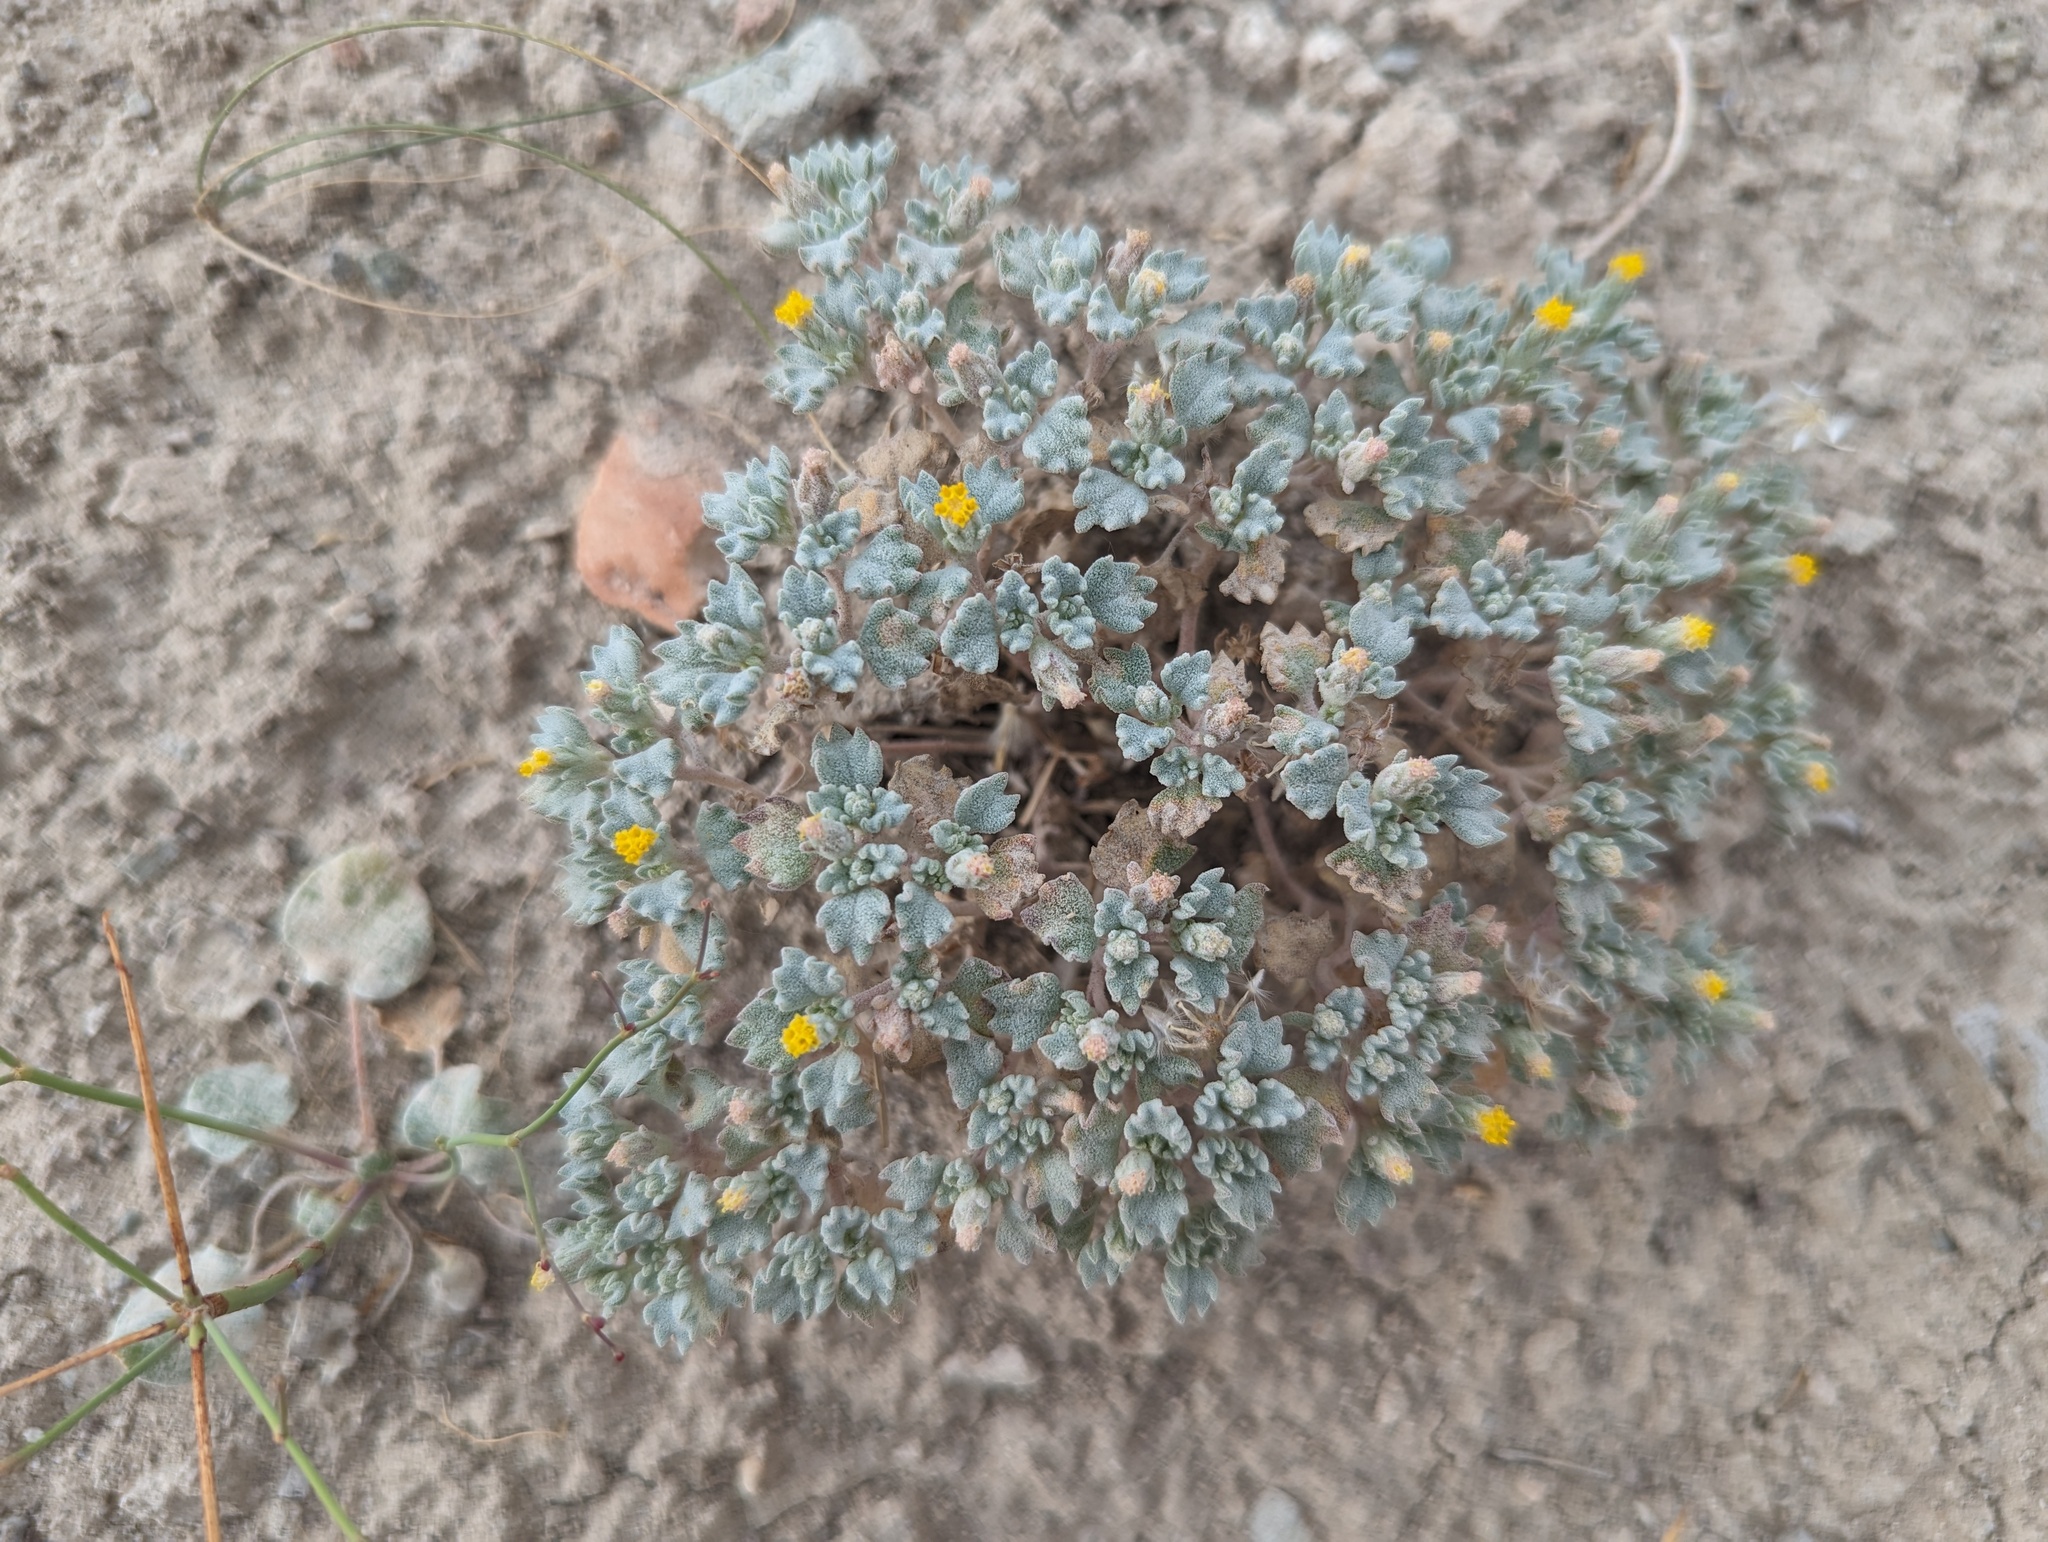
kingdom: Plantae
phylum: Tracheophyta
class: Magnoliopsida
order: Asterales
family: Asteraceae
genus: Psathyrotes
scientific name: Psathyrotes annua
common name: Mealy rosettes
